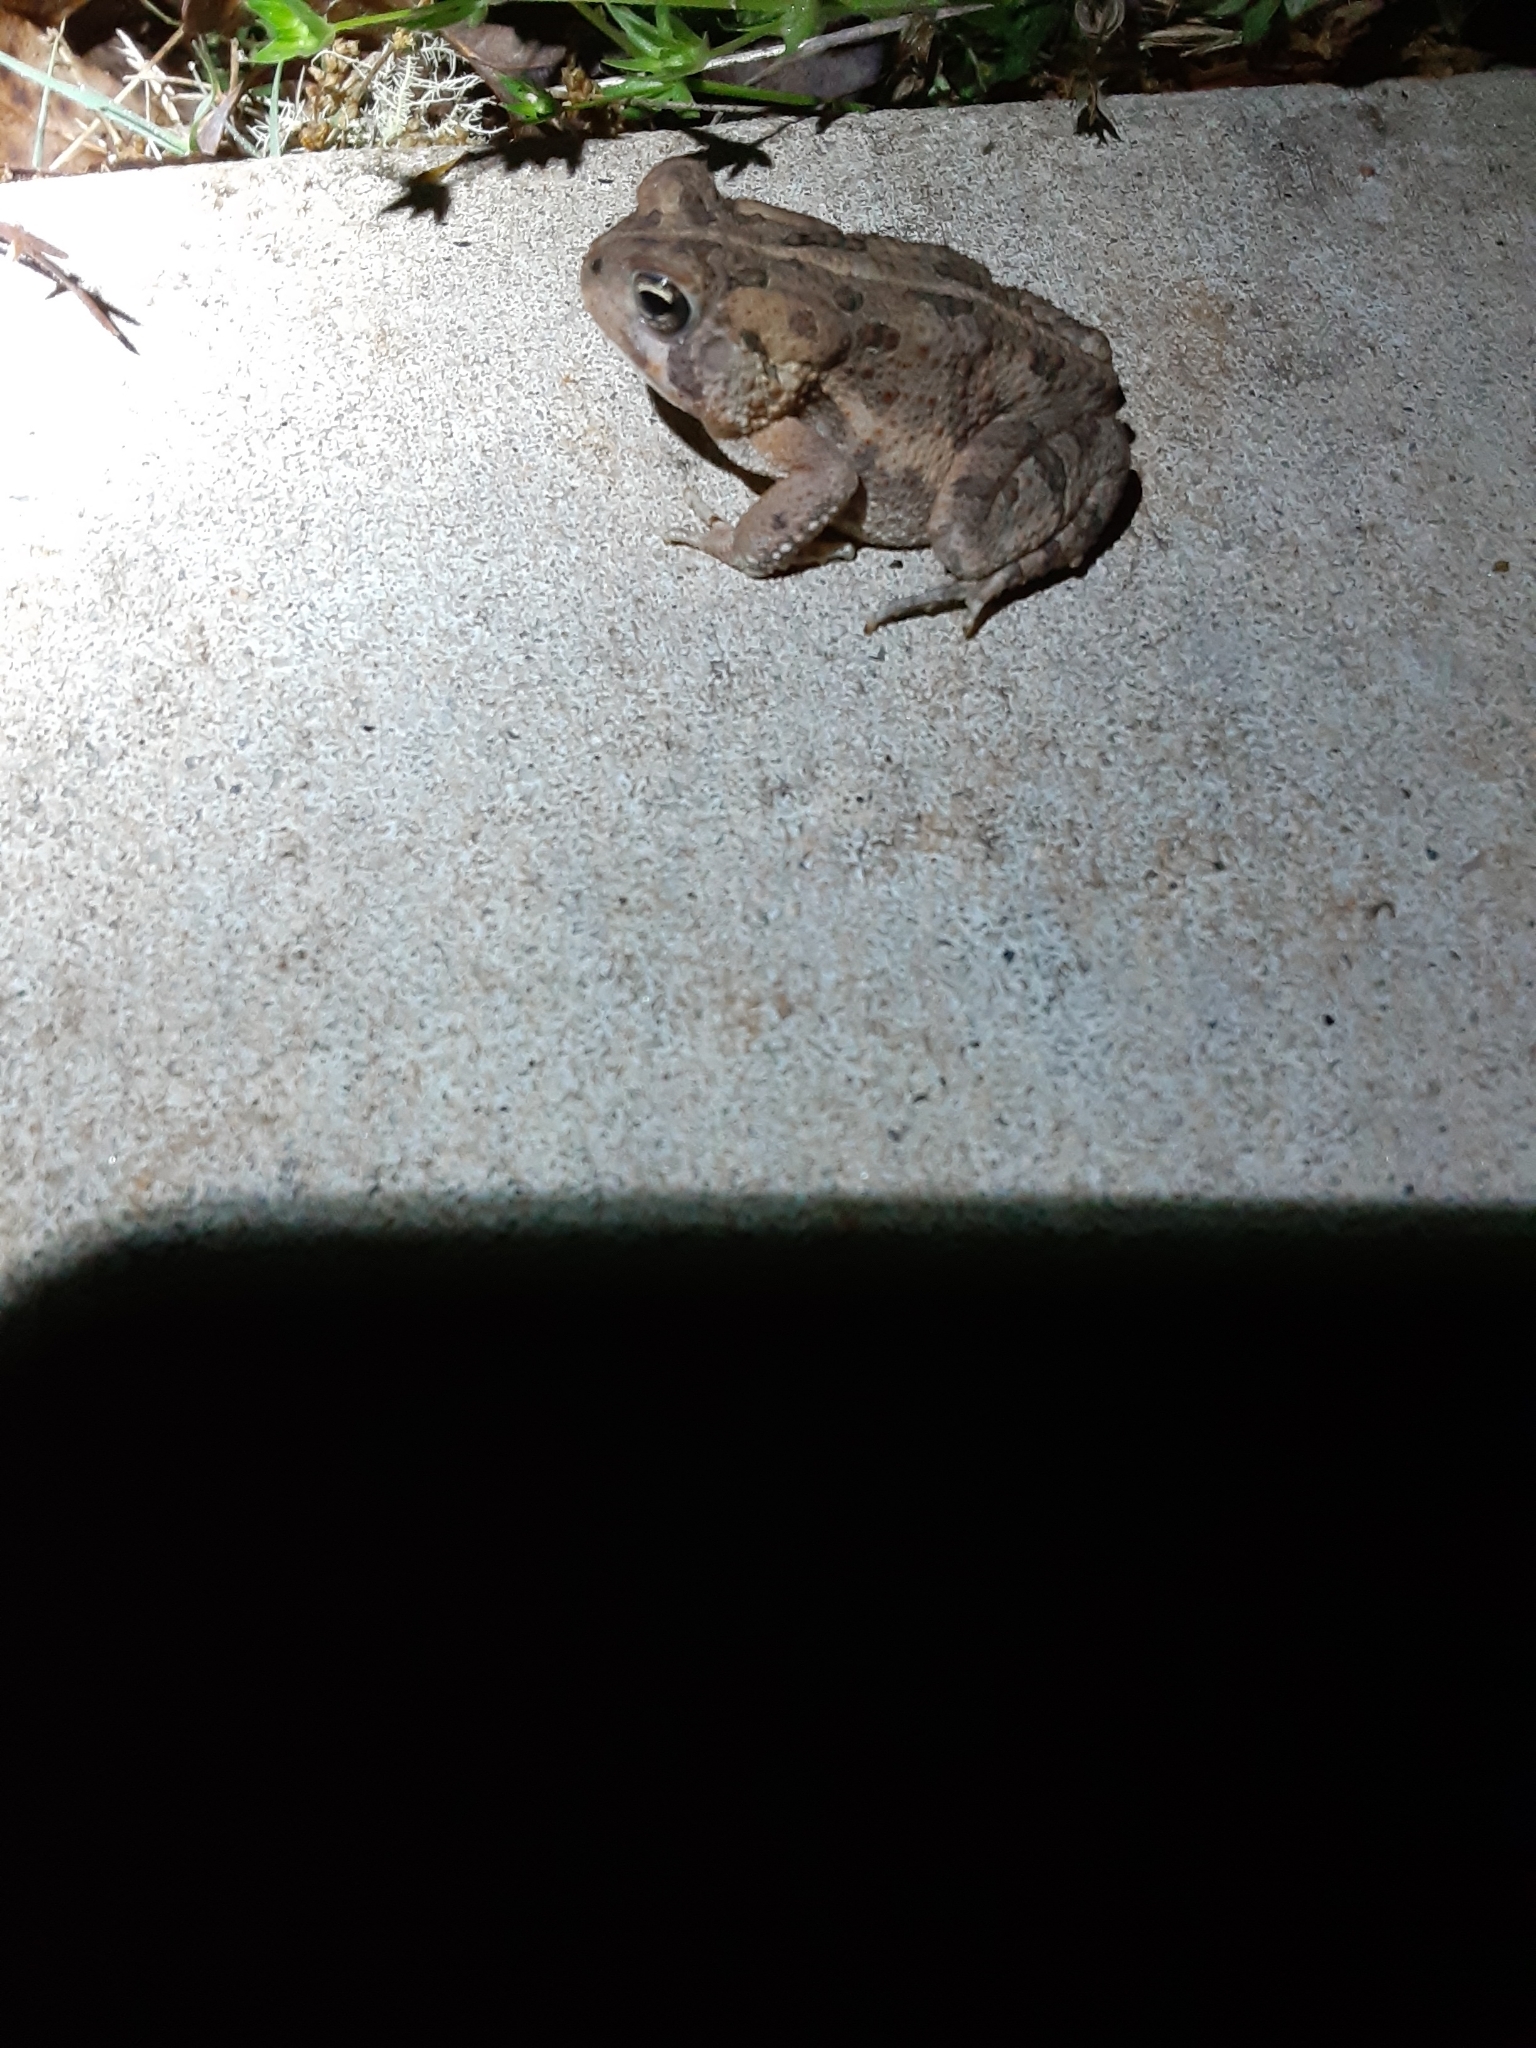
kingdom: Animalia
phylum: Chordata
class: Amphibia
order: Anura
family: Bufonidae
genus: Anaxyrus
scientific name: Anaxyrus fowleri
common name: Fowler's toad
